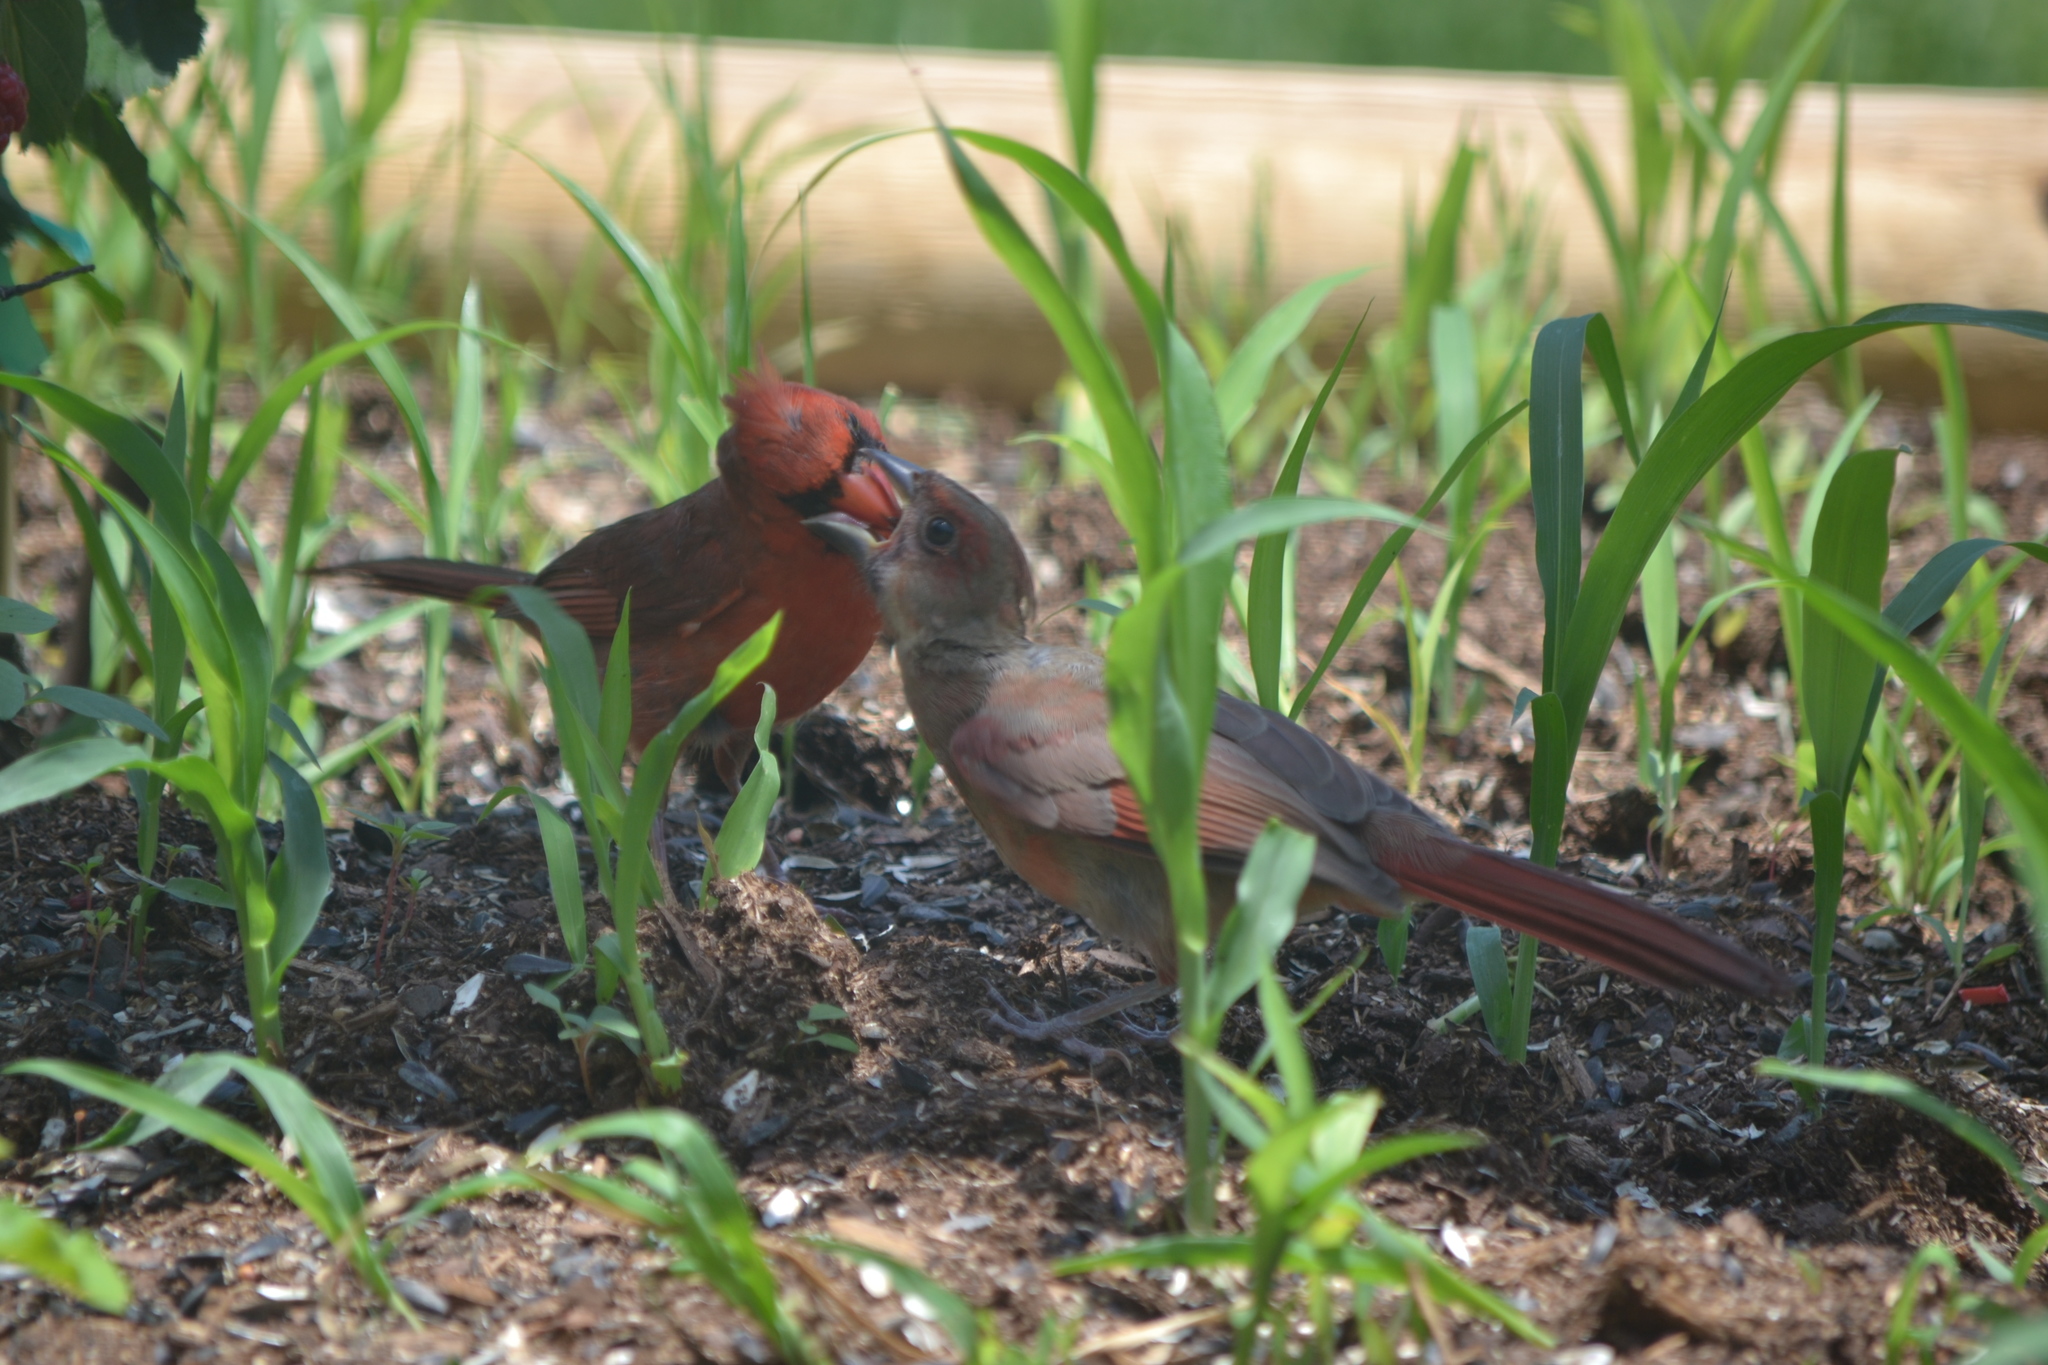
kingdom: Animalia
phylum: Chordata
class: Aves
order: Passeriformes
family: Cardinalidae
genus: Cardinalis
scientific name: Cardinalis cardinalis
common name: Northern cardinal
